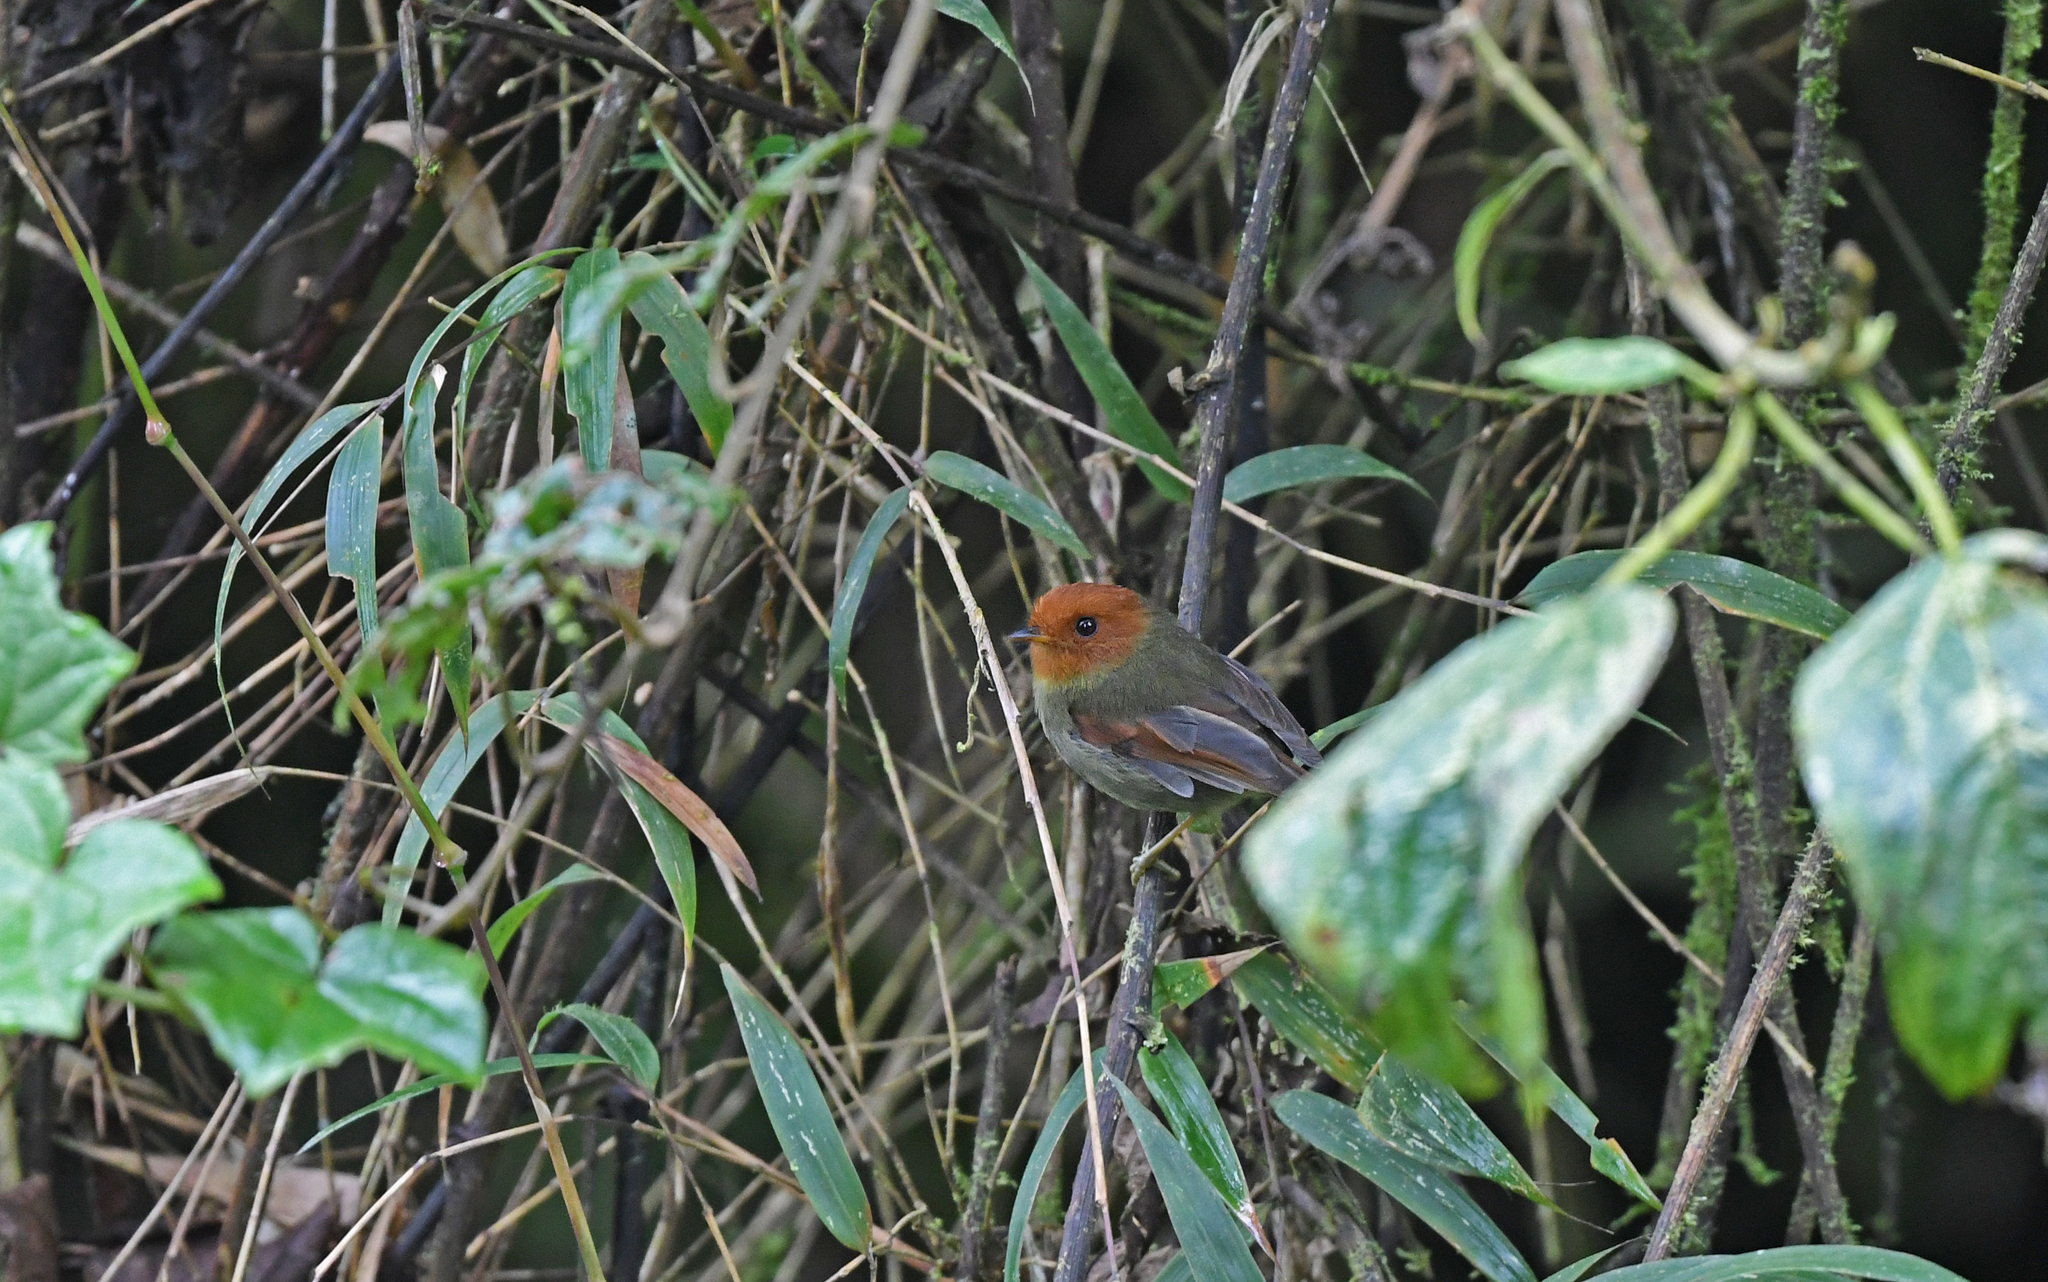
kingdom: Animalia
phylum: Chordata
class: Aves
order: Passeriformes
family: Tyrannidae
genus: Pseudotriccus
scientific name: Pseudotriccus ruficeps
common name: Rufous-headed pygmy tyrant
